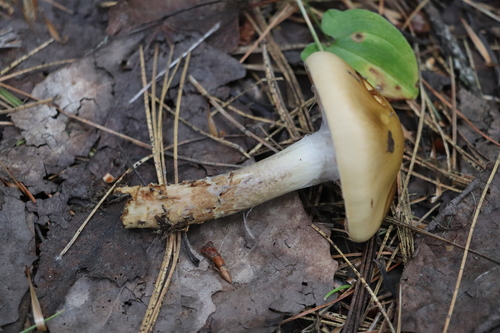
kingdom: Fungi
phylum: Basidiomycota
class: Agaricomycetes
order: Agaricales
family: Cortinariaceae
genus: Cortinarius
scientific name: Cortinarius trivialis
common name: Girdled webcap
